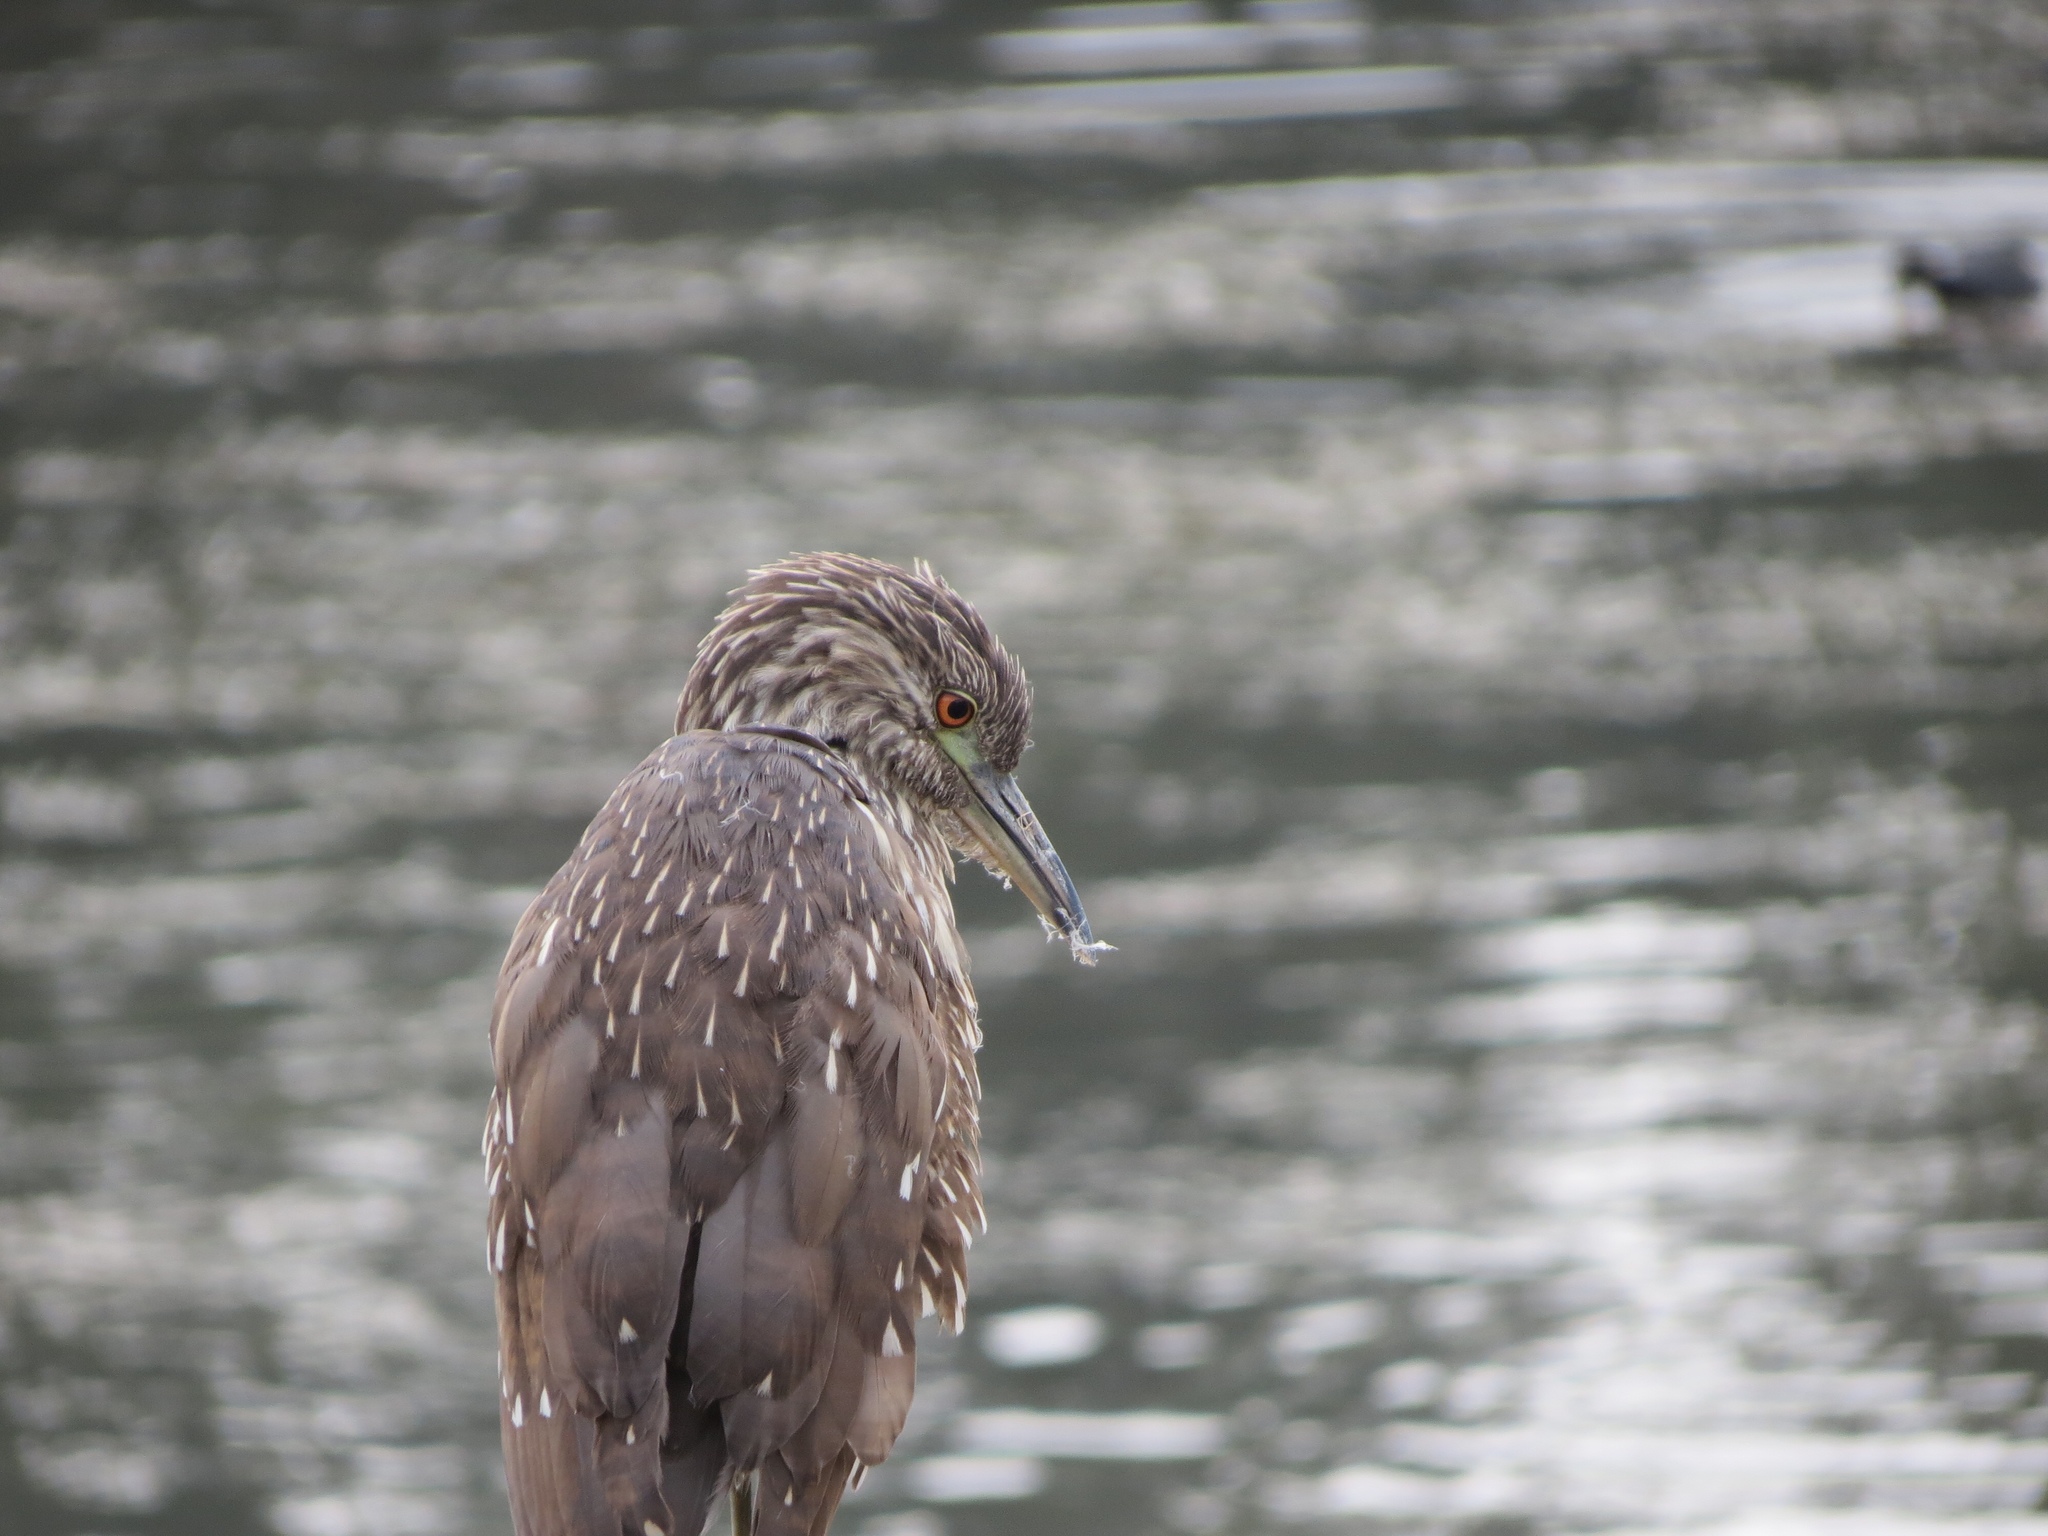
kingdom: Animalia
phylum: Chordata
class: Aves
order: Pelecaniformes
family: Ardeidae
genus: Nycticorax
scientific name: Nycticorax nycticorax
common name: Black-crowned night heron
